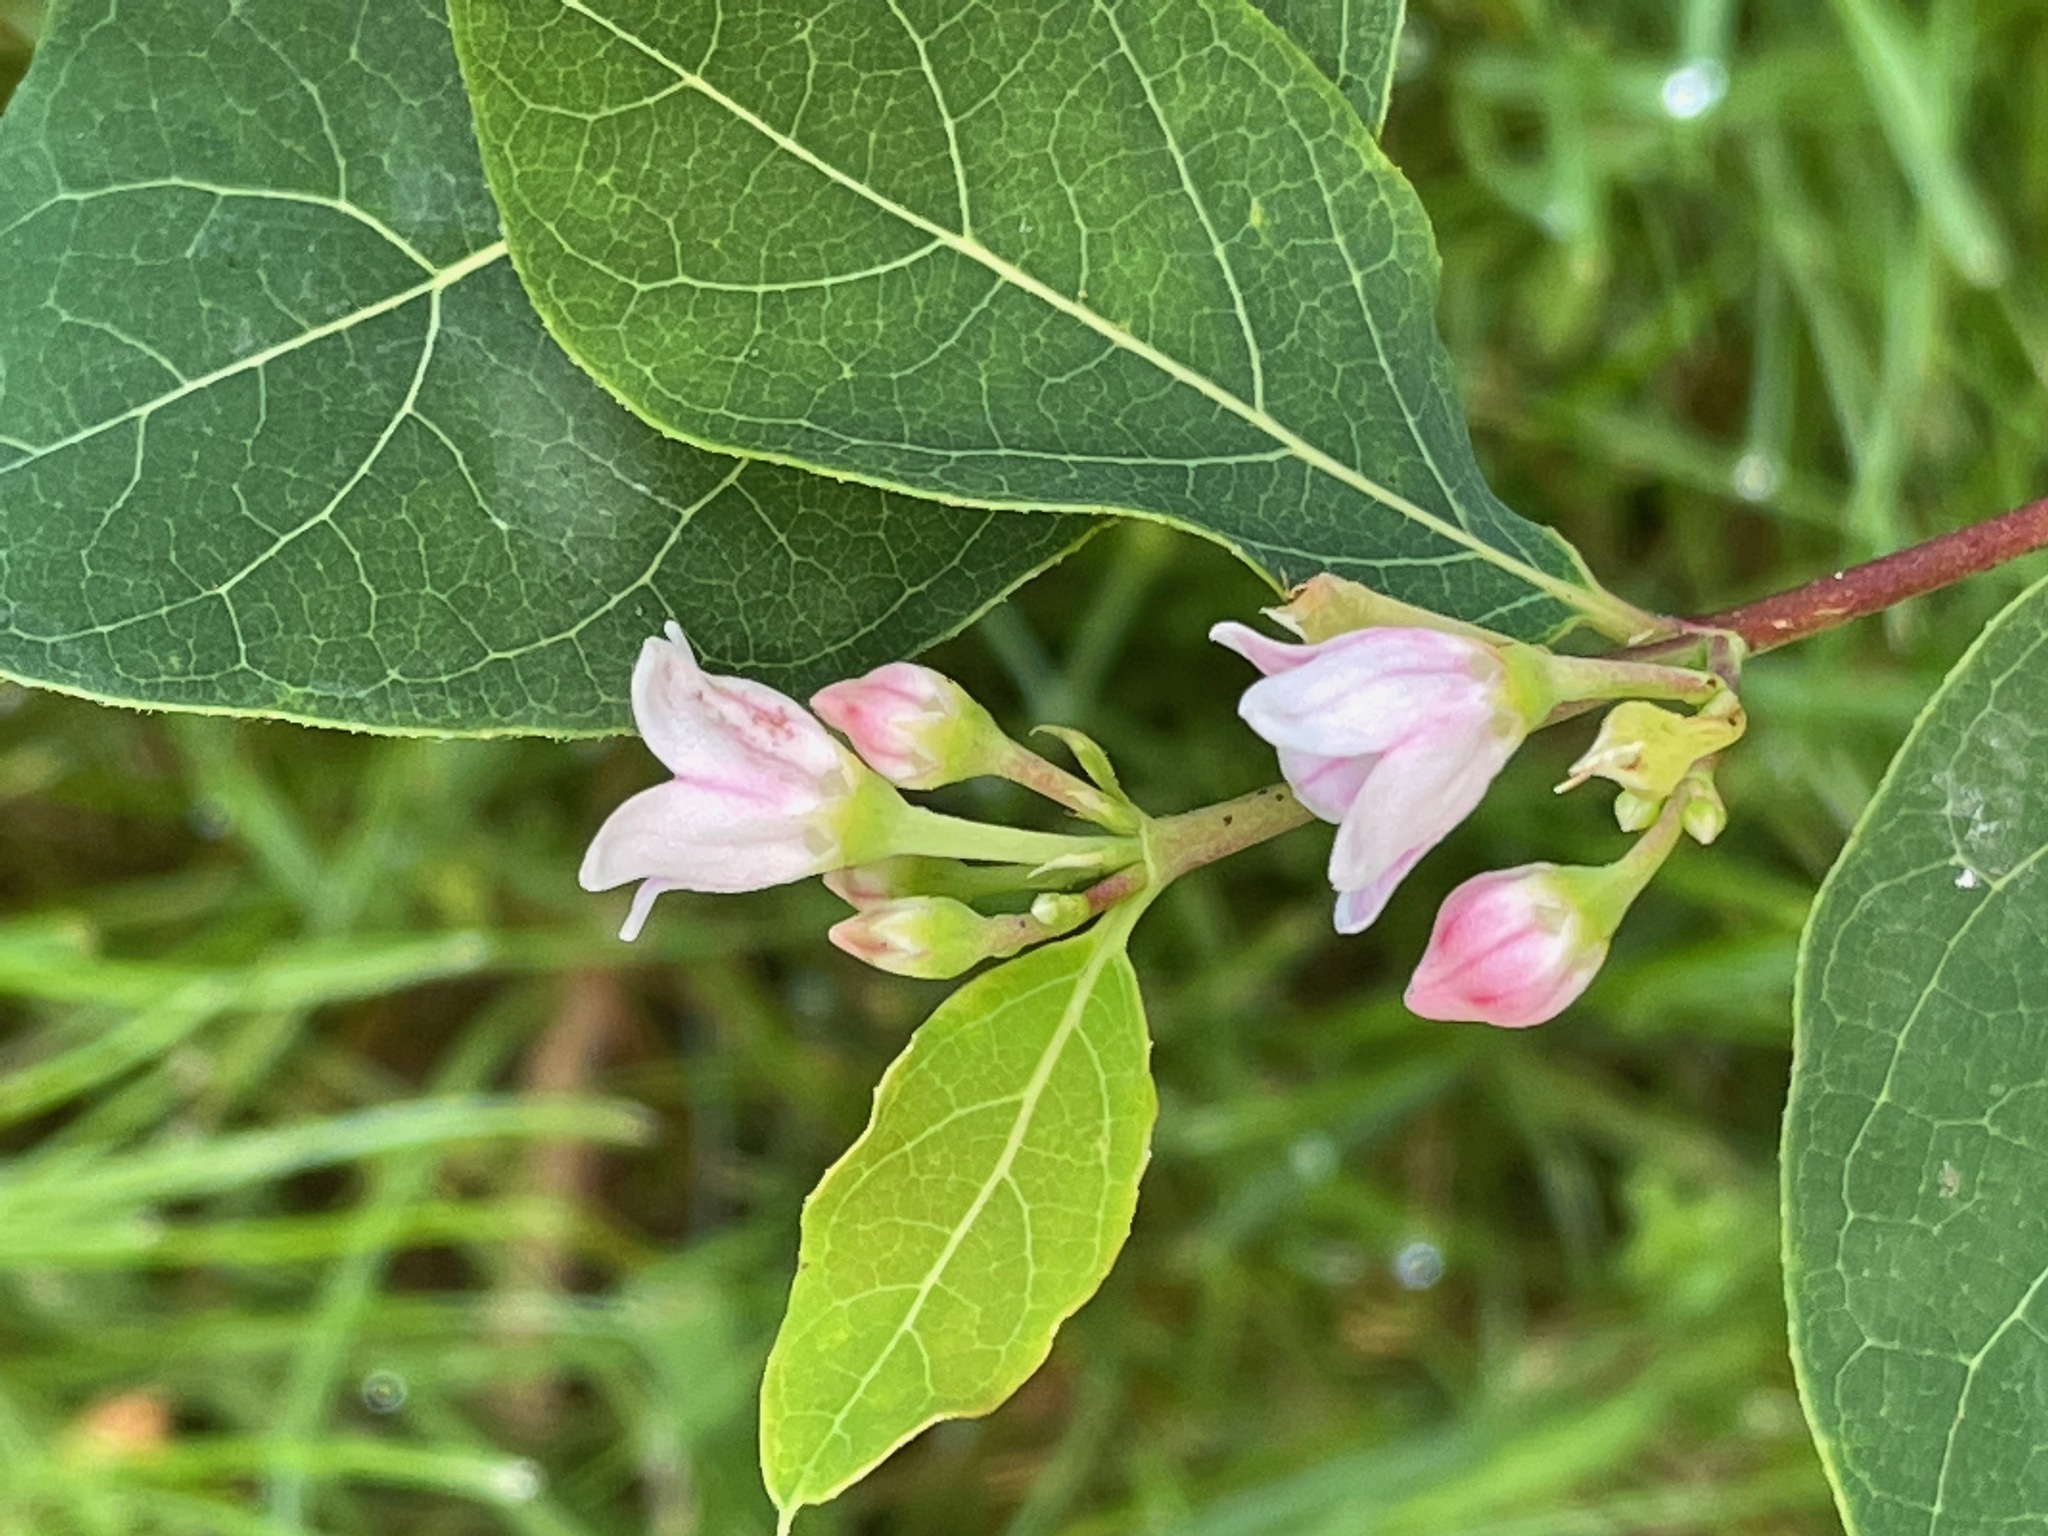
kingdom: Plantae
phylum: Tracheophyta
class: Magnoliopsida
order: Gentianales
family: Apocynaceae
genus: Apocynum
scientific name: Apocynum androsaemifolium
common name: Spreading dogbane
